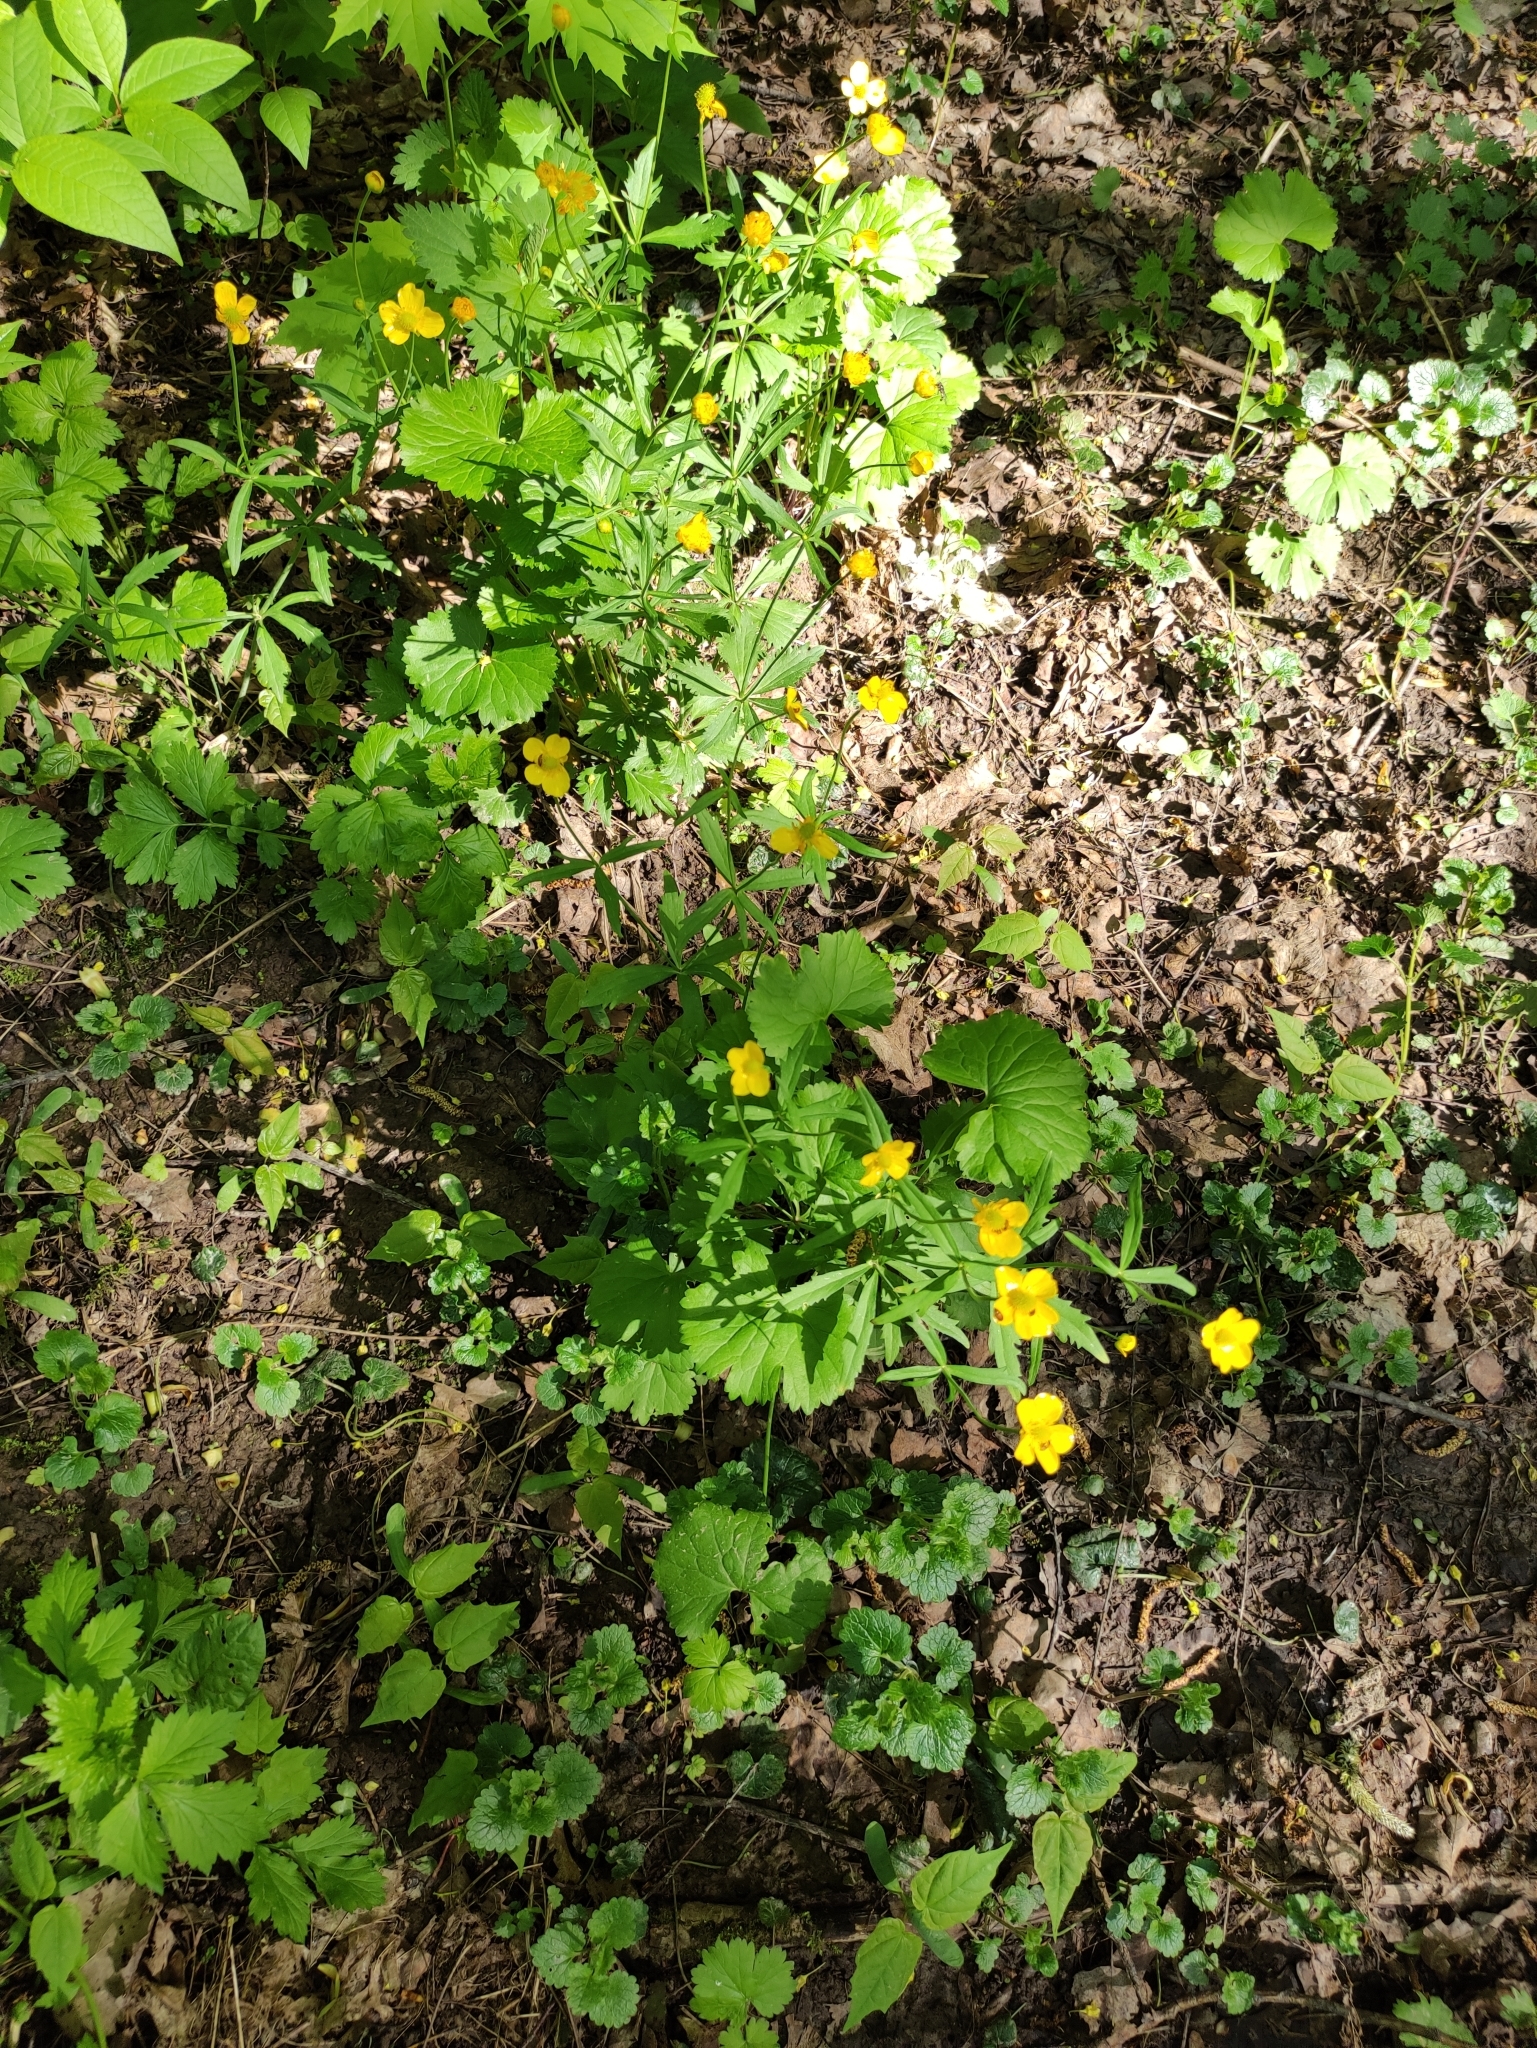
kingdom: Plantae
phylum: Tracheophyta
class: Magnoliopsida
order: Ranunculales
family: Ranunculaceae
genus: Ranunculus
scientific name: Ranunculus cassubicus
